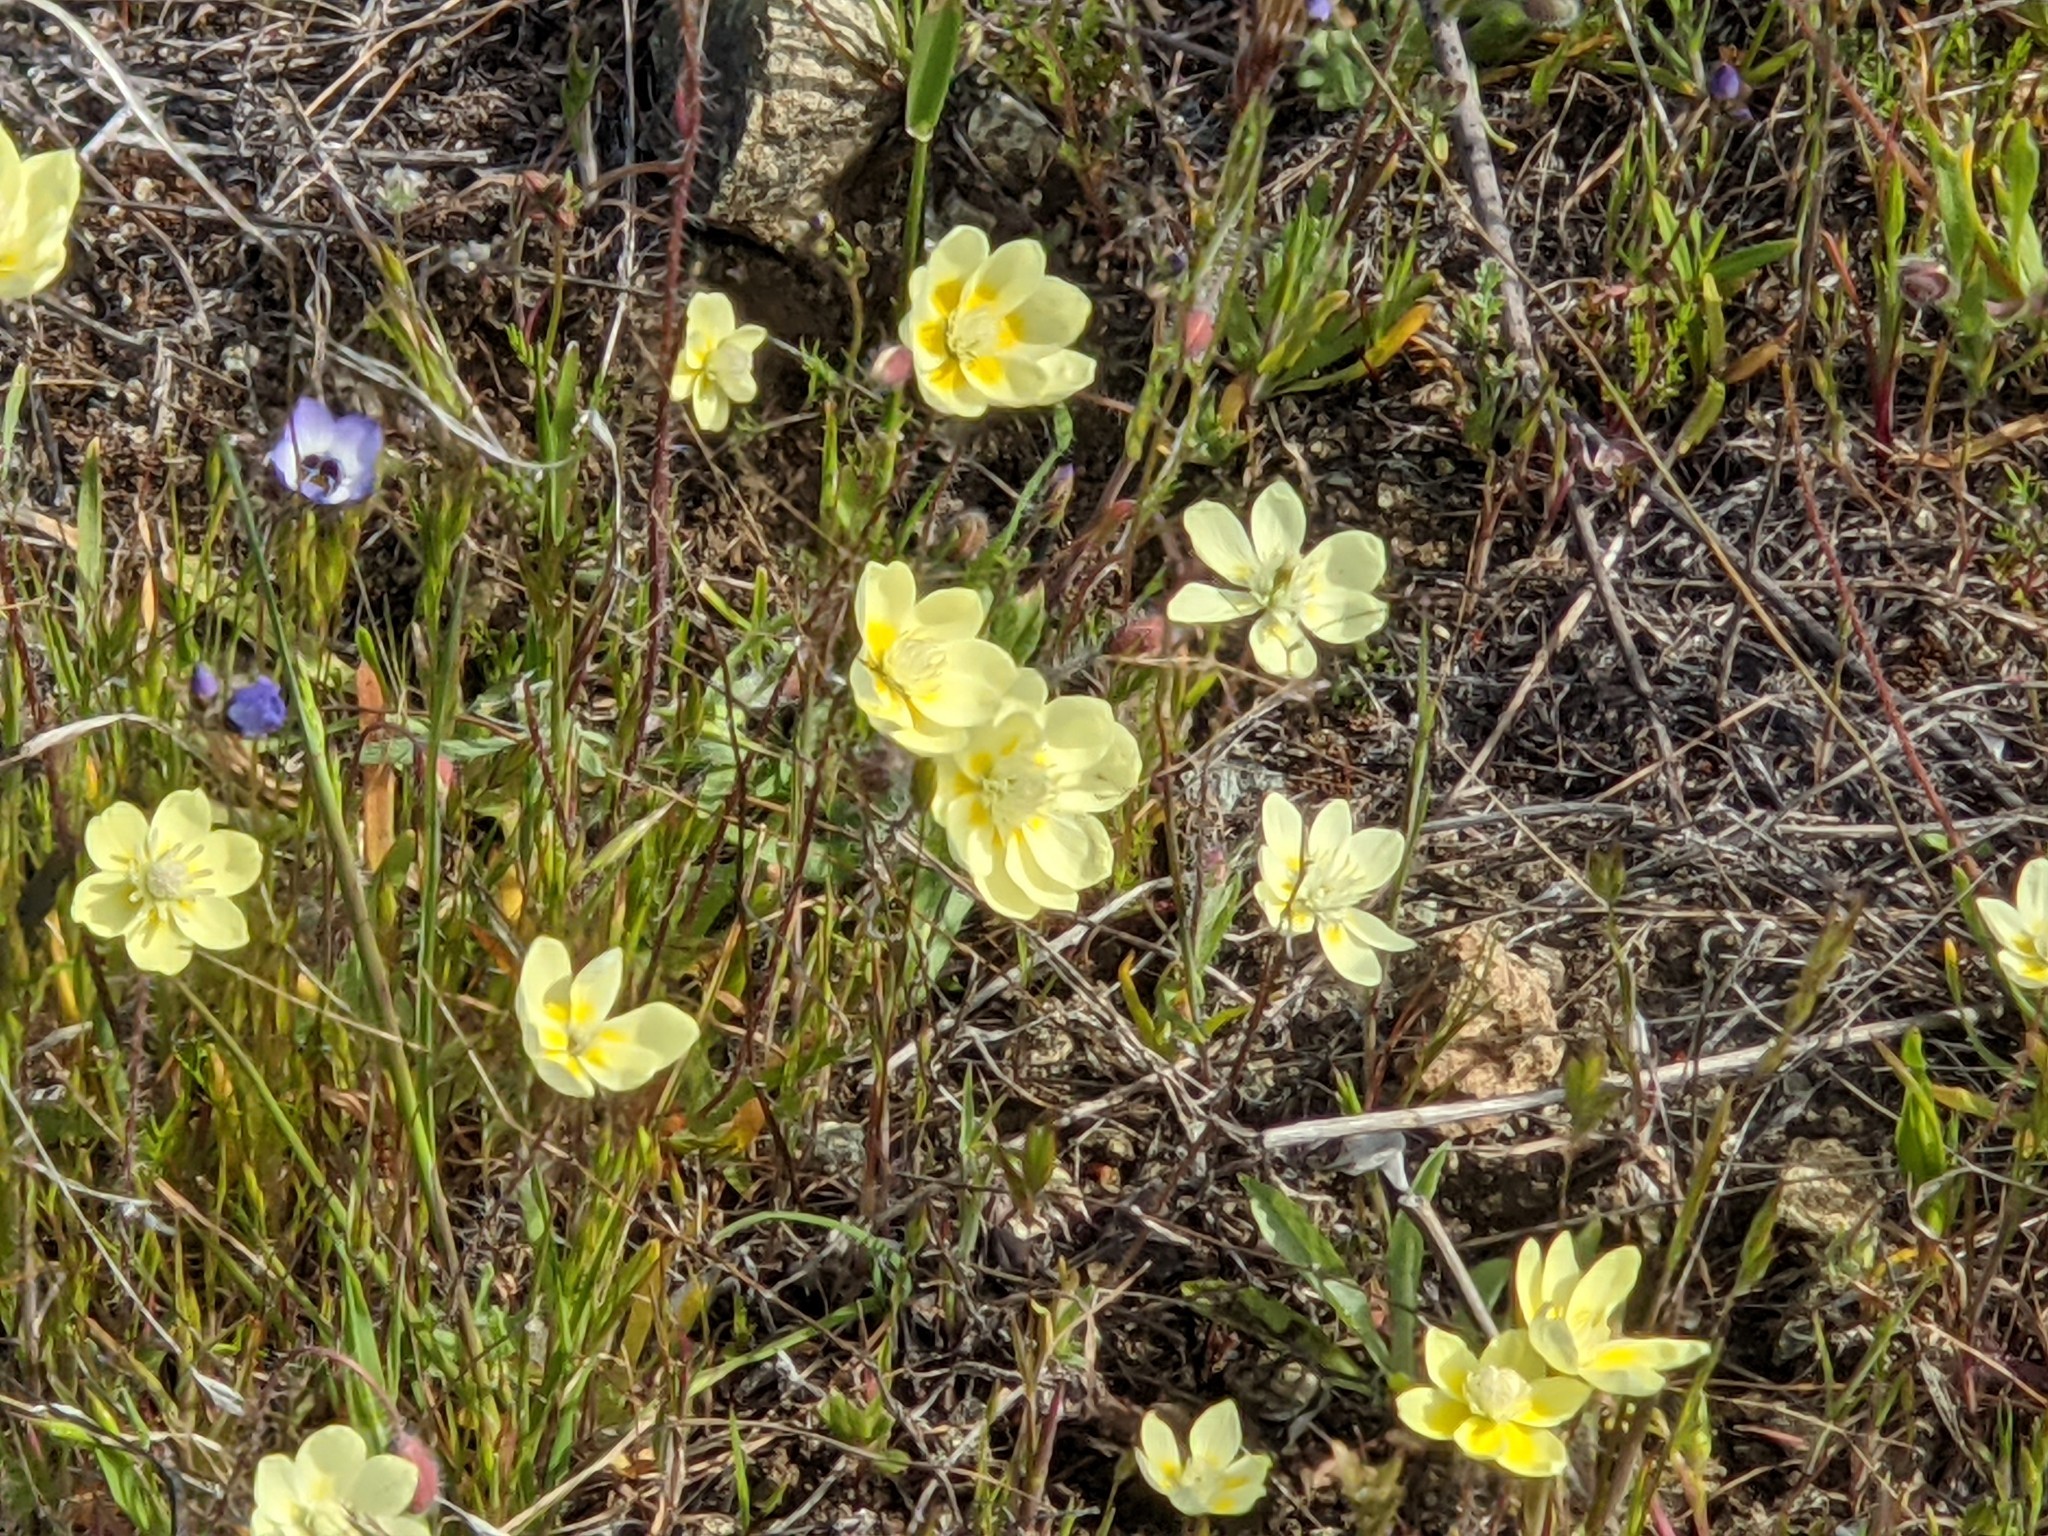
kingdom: Plantae
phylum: Tracheophyta
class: Magnoliopsida
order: Ranunculales
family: Papaveraceae
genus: Platystemon
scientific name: Platystemon californicus
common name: Cream-cups
